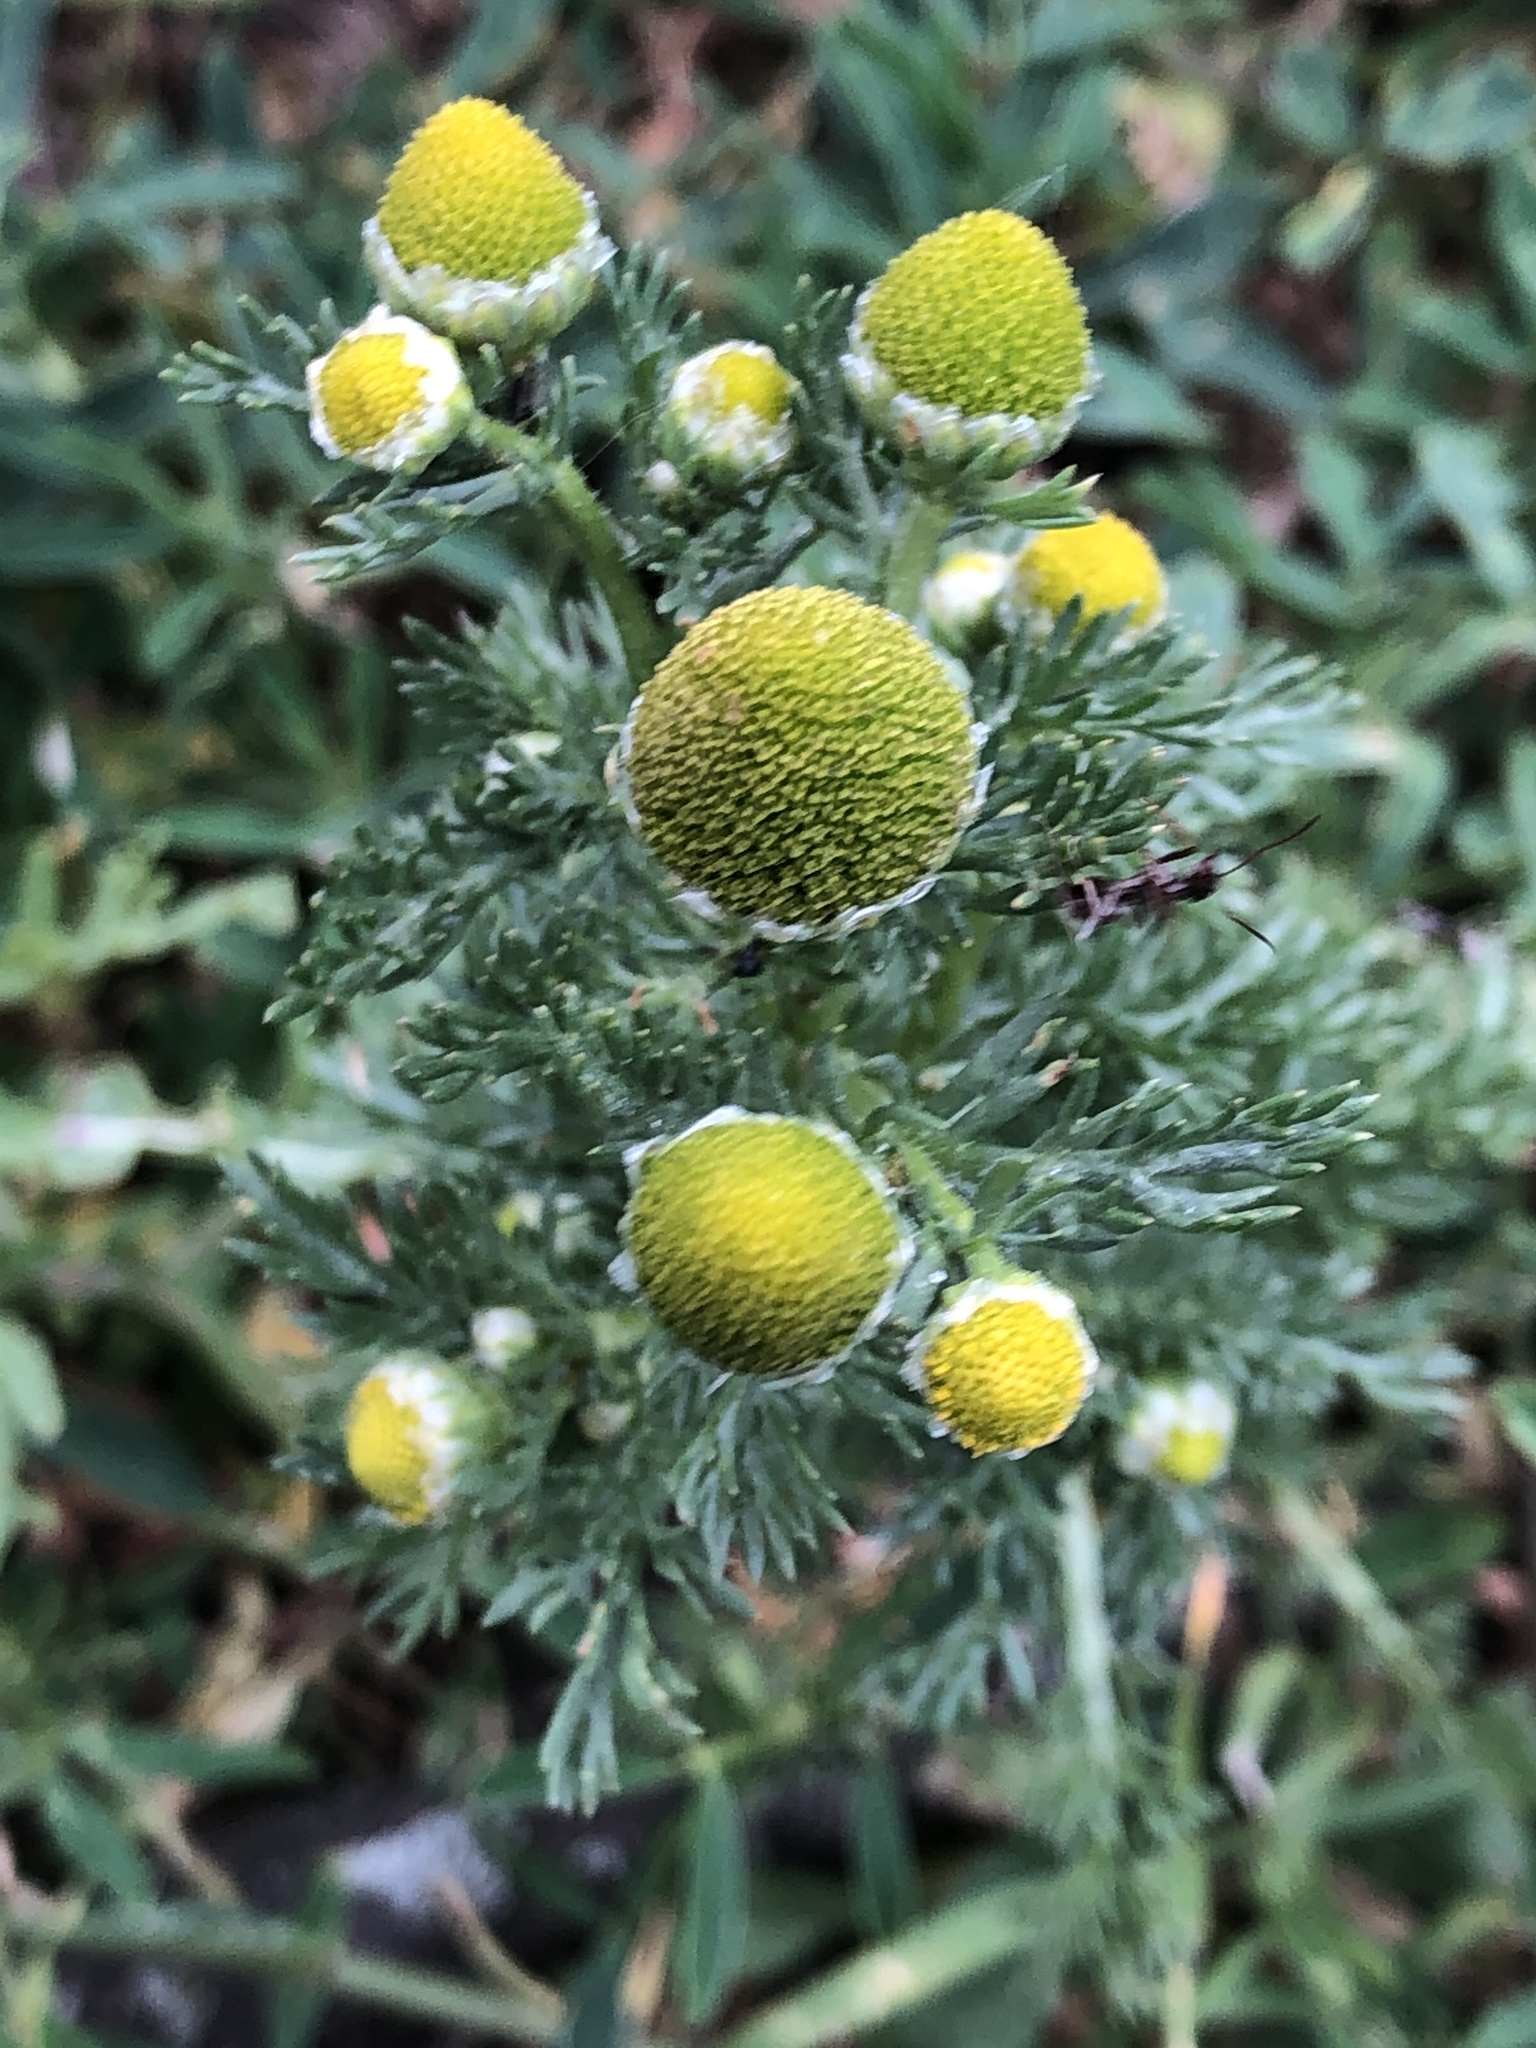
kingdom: Plantae
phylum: Tracheophyta
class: Magnoliopsida
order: Asterales
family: Asteraceae
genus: Matricaria
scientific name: Matricaria discoidea
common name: Disc mayweed
